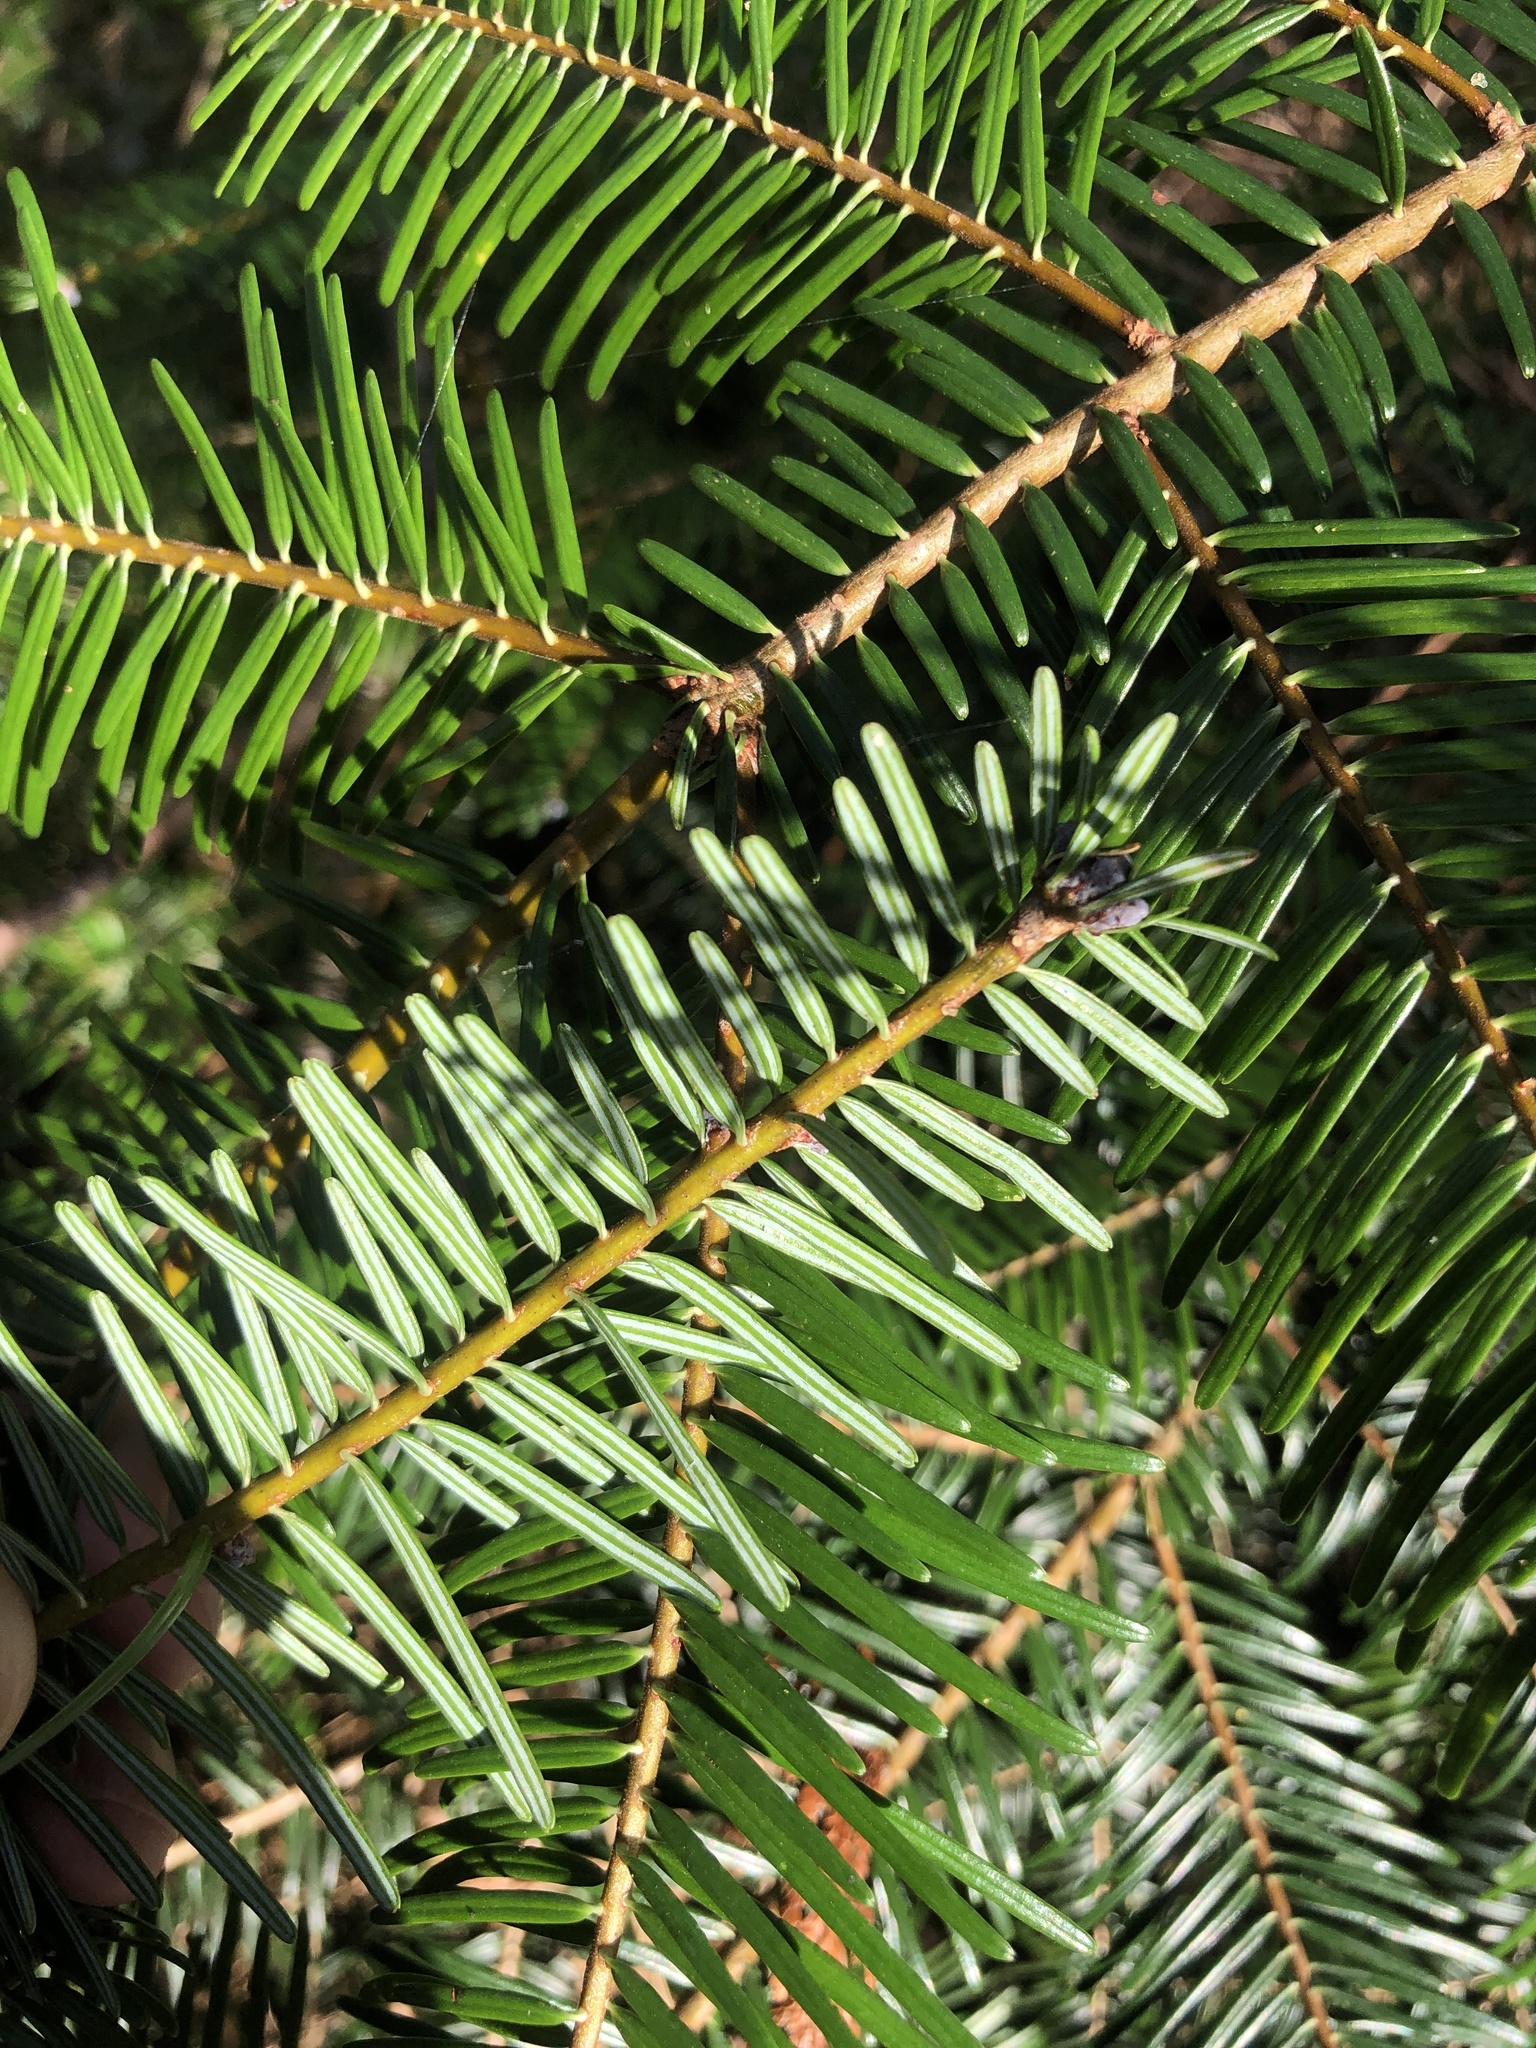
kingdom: Plantae
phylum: Tracheophyta
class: Pinopsida
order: Pinales
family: Pinaceae
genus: Abies
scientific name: Abies grandis
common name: Giant fir
